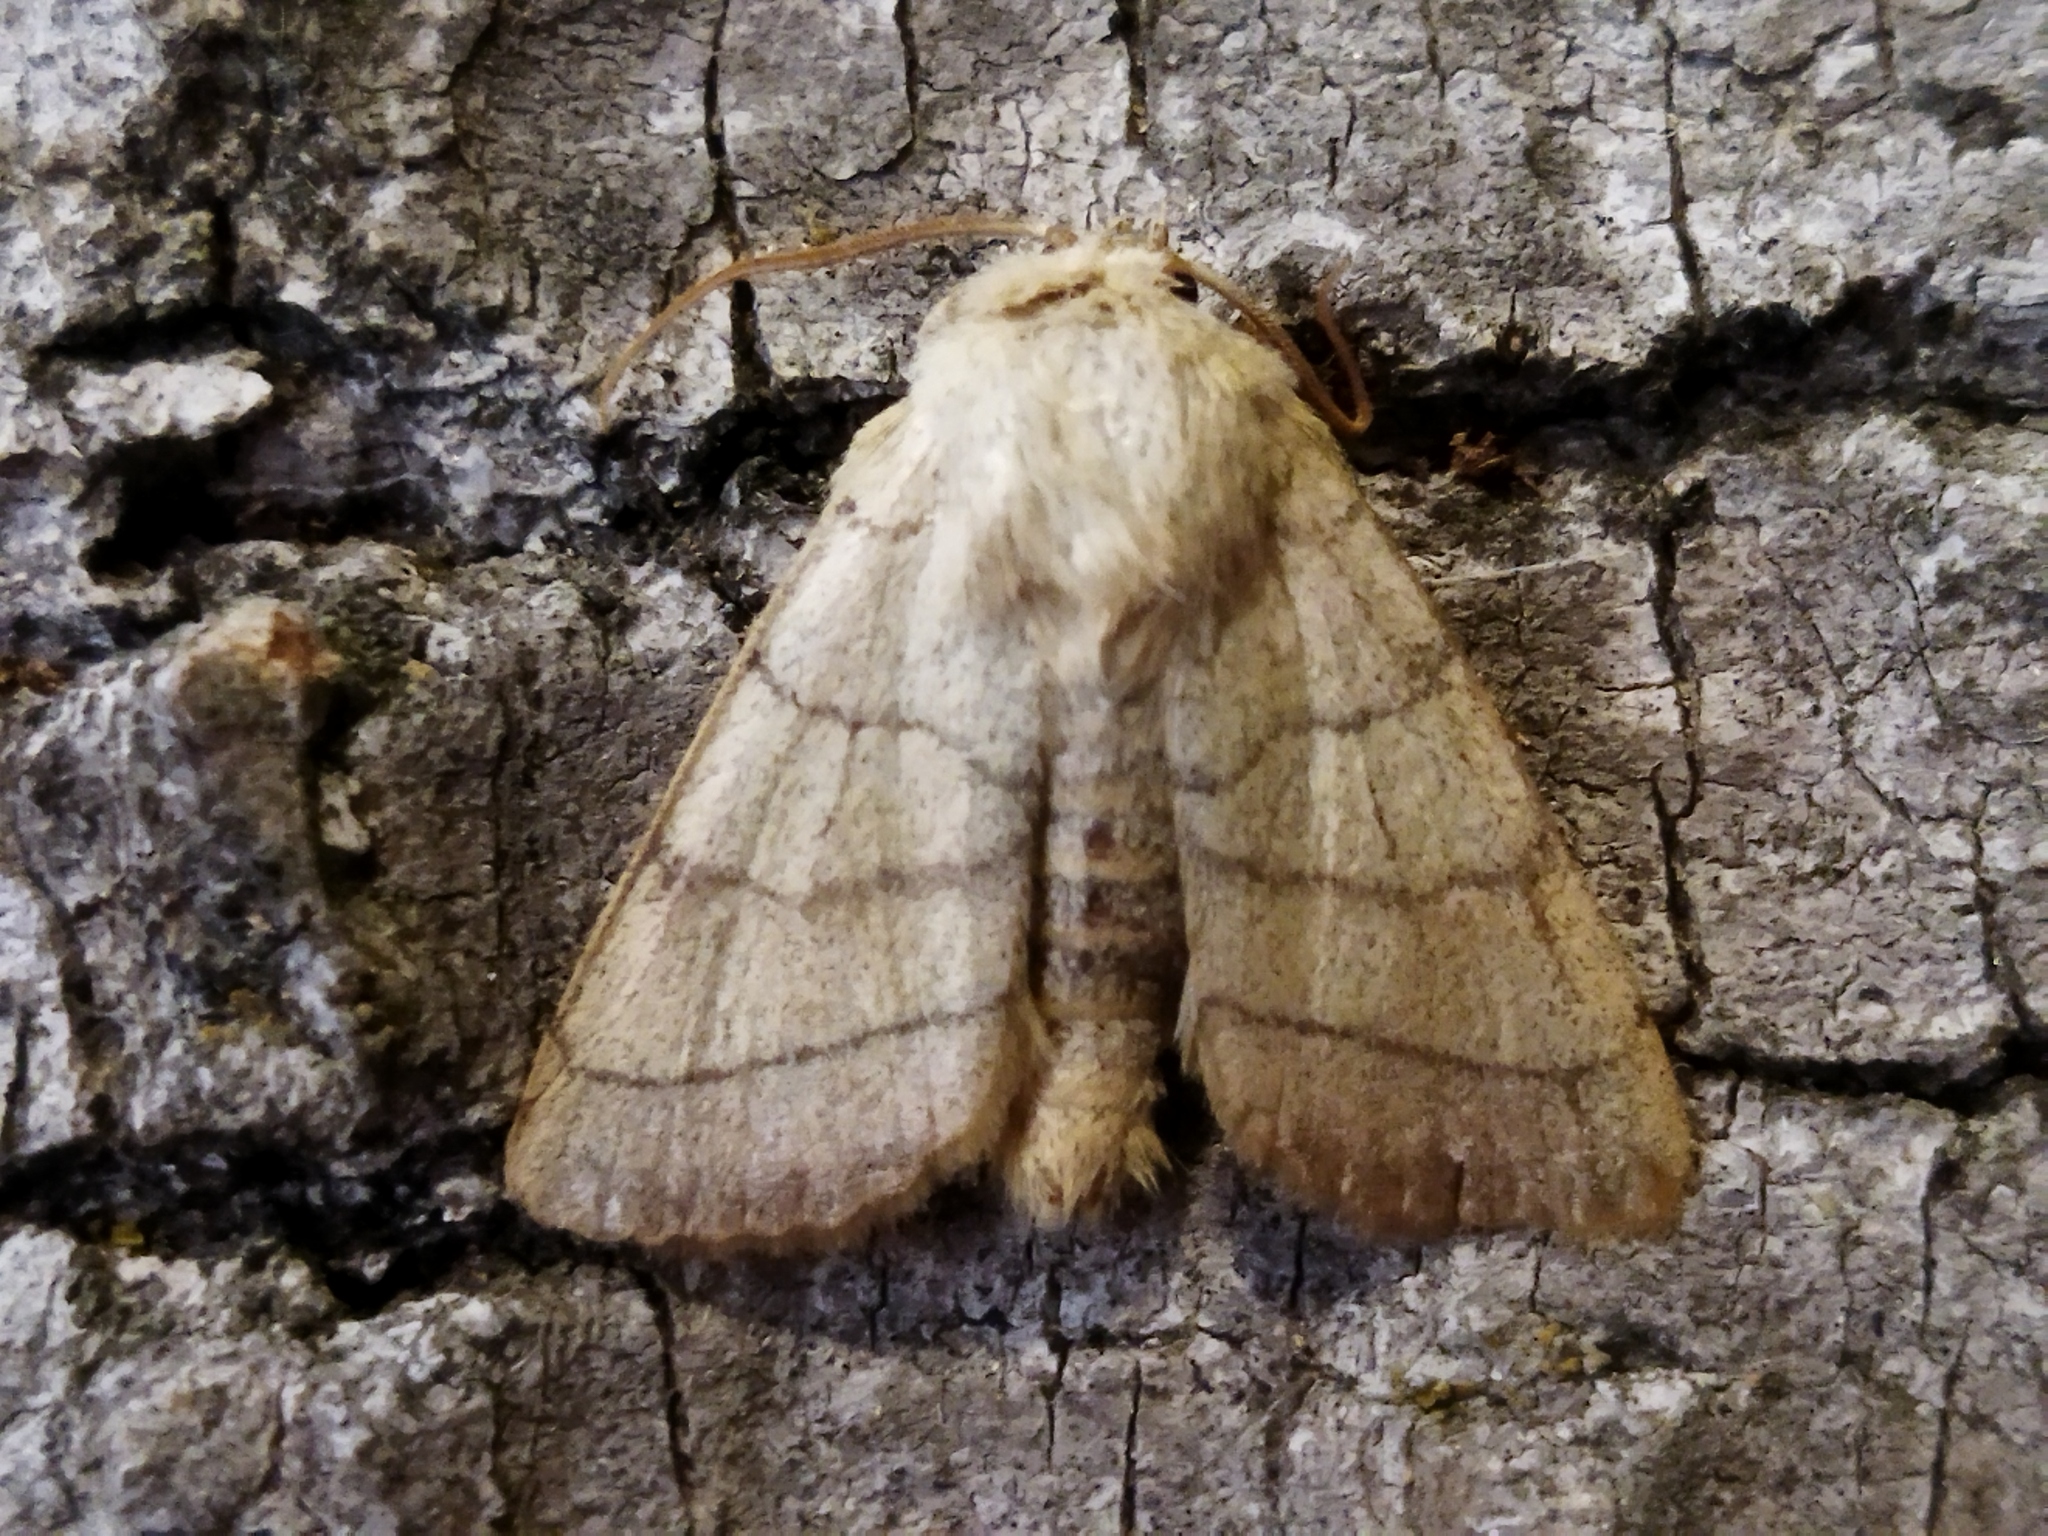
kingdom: Animalia
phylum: Arthropoda
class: Insecta
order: Lepidoptera
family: Noctuidae
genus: Charanyca
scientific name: Charanyca trigrammica
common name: Treble lines
